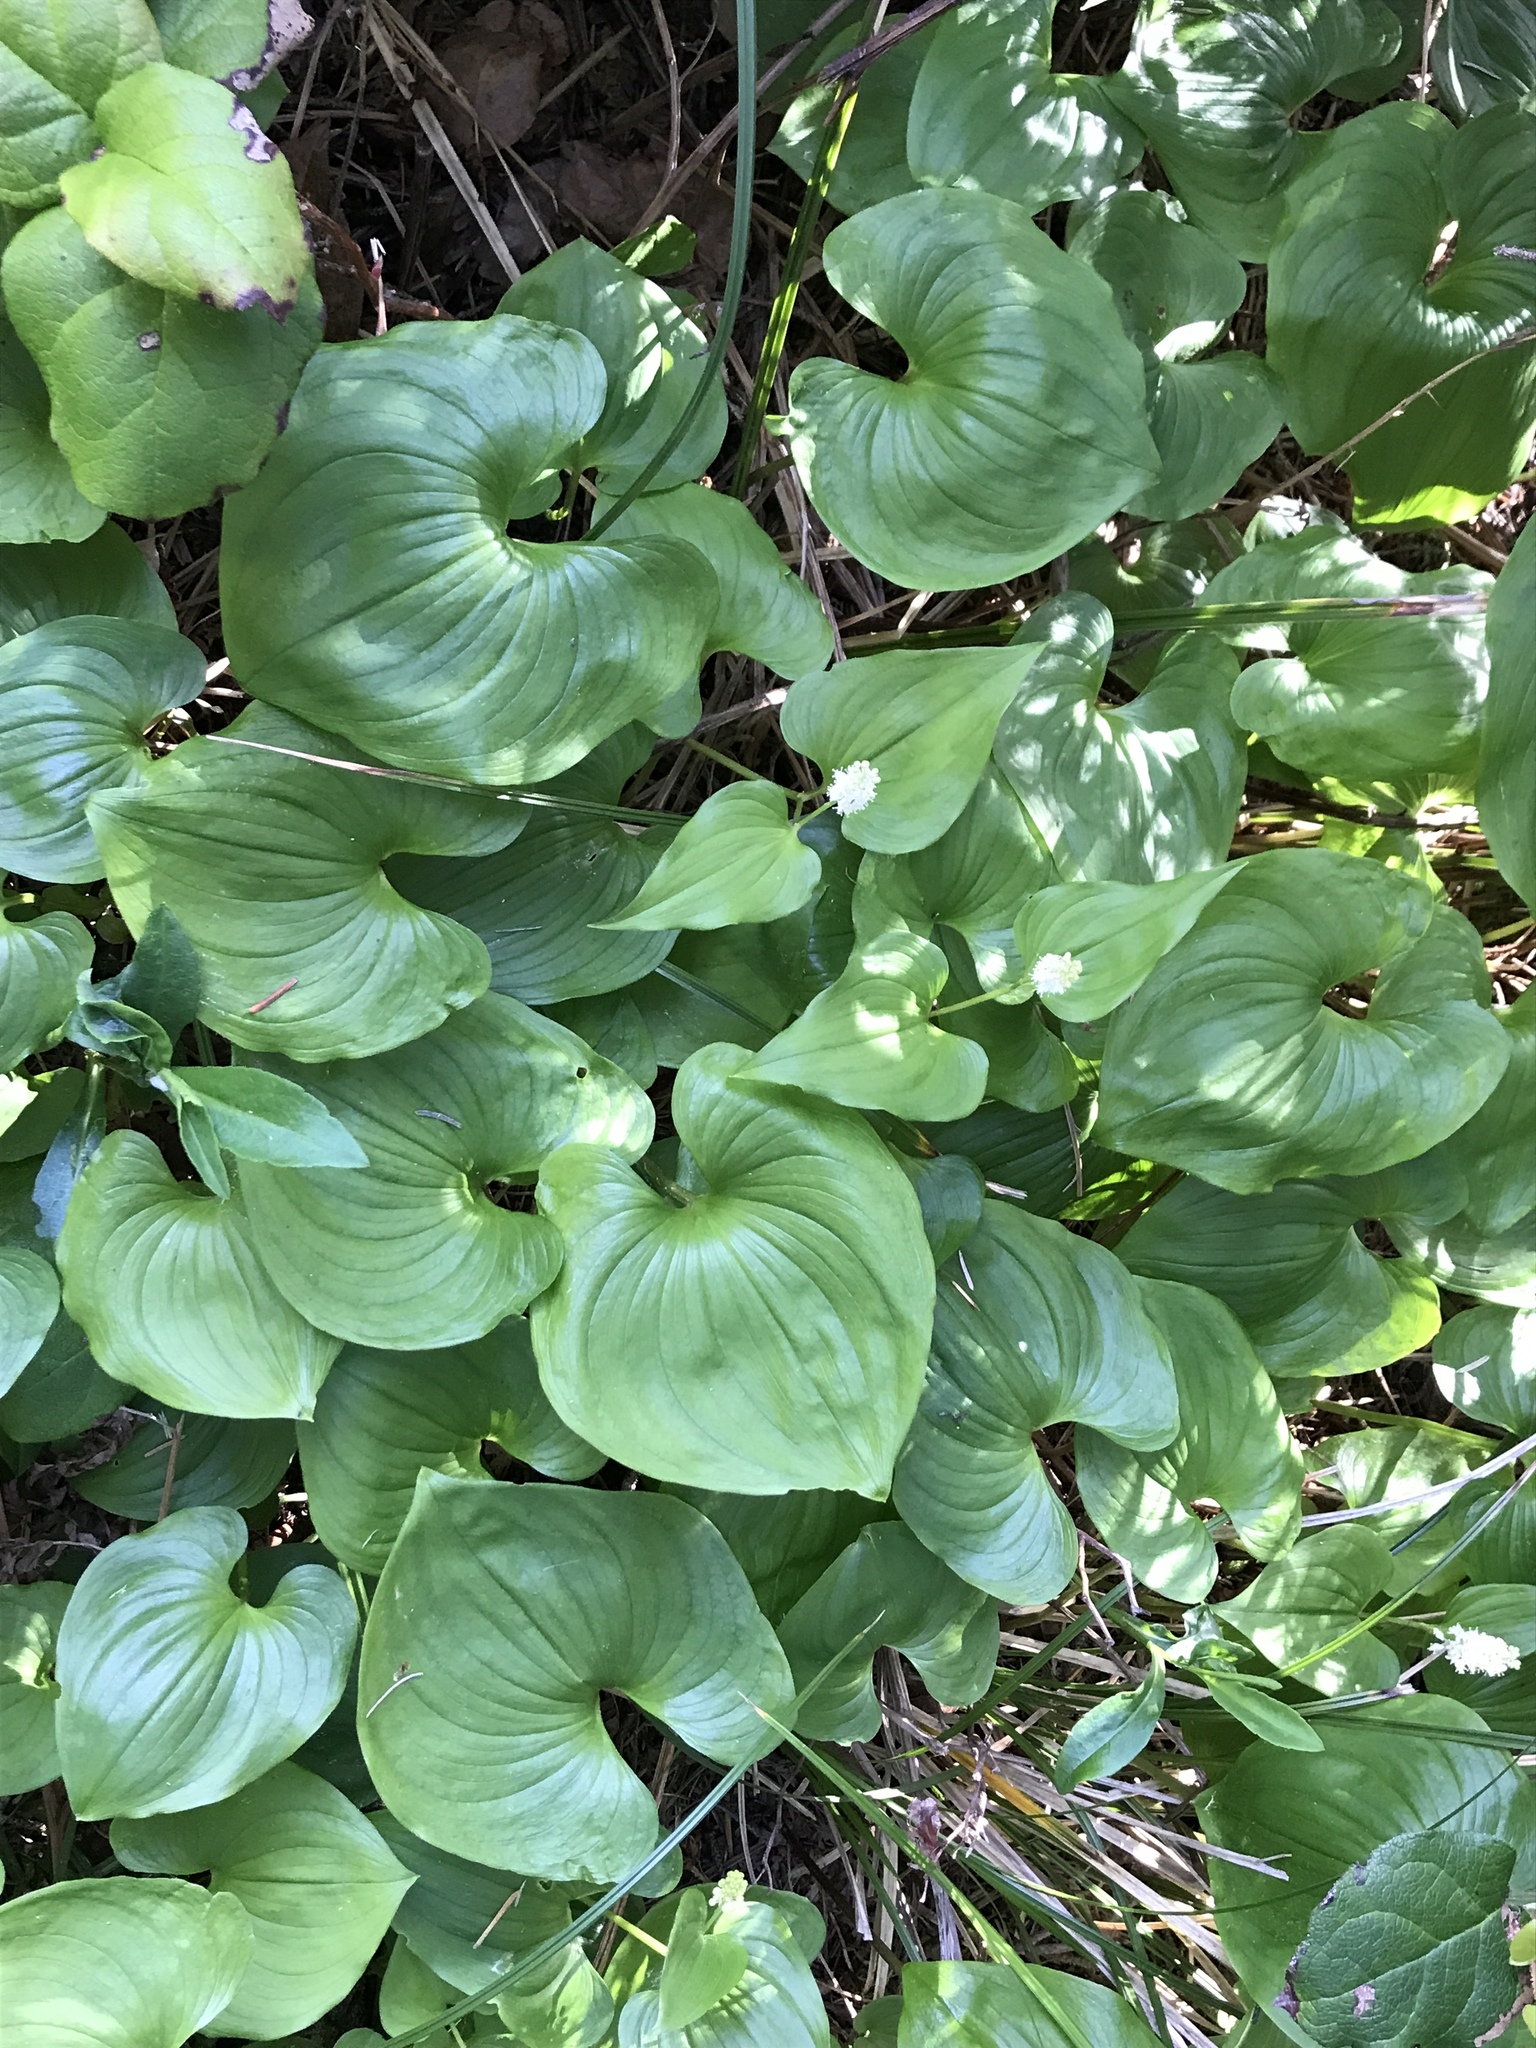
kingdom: Plantae
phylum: Tracheophyta
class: Liliopsida
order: Asparagales
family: Asparagaceae
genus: Maianthemum
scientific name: Maianthemum dilatatum
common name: False lily-of-the-valley
